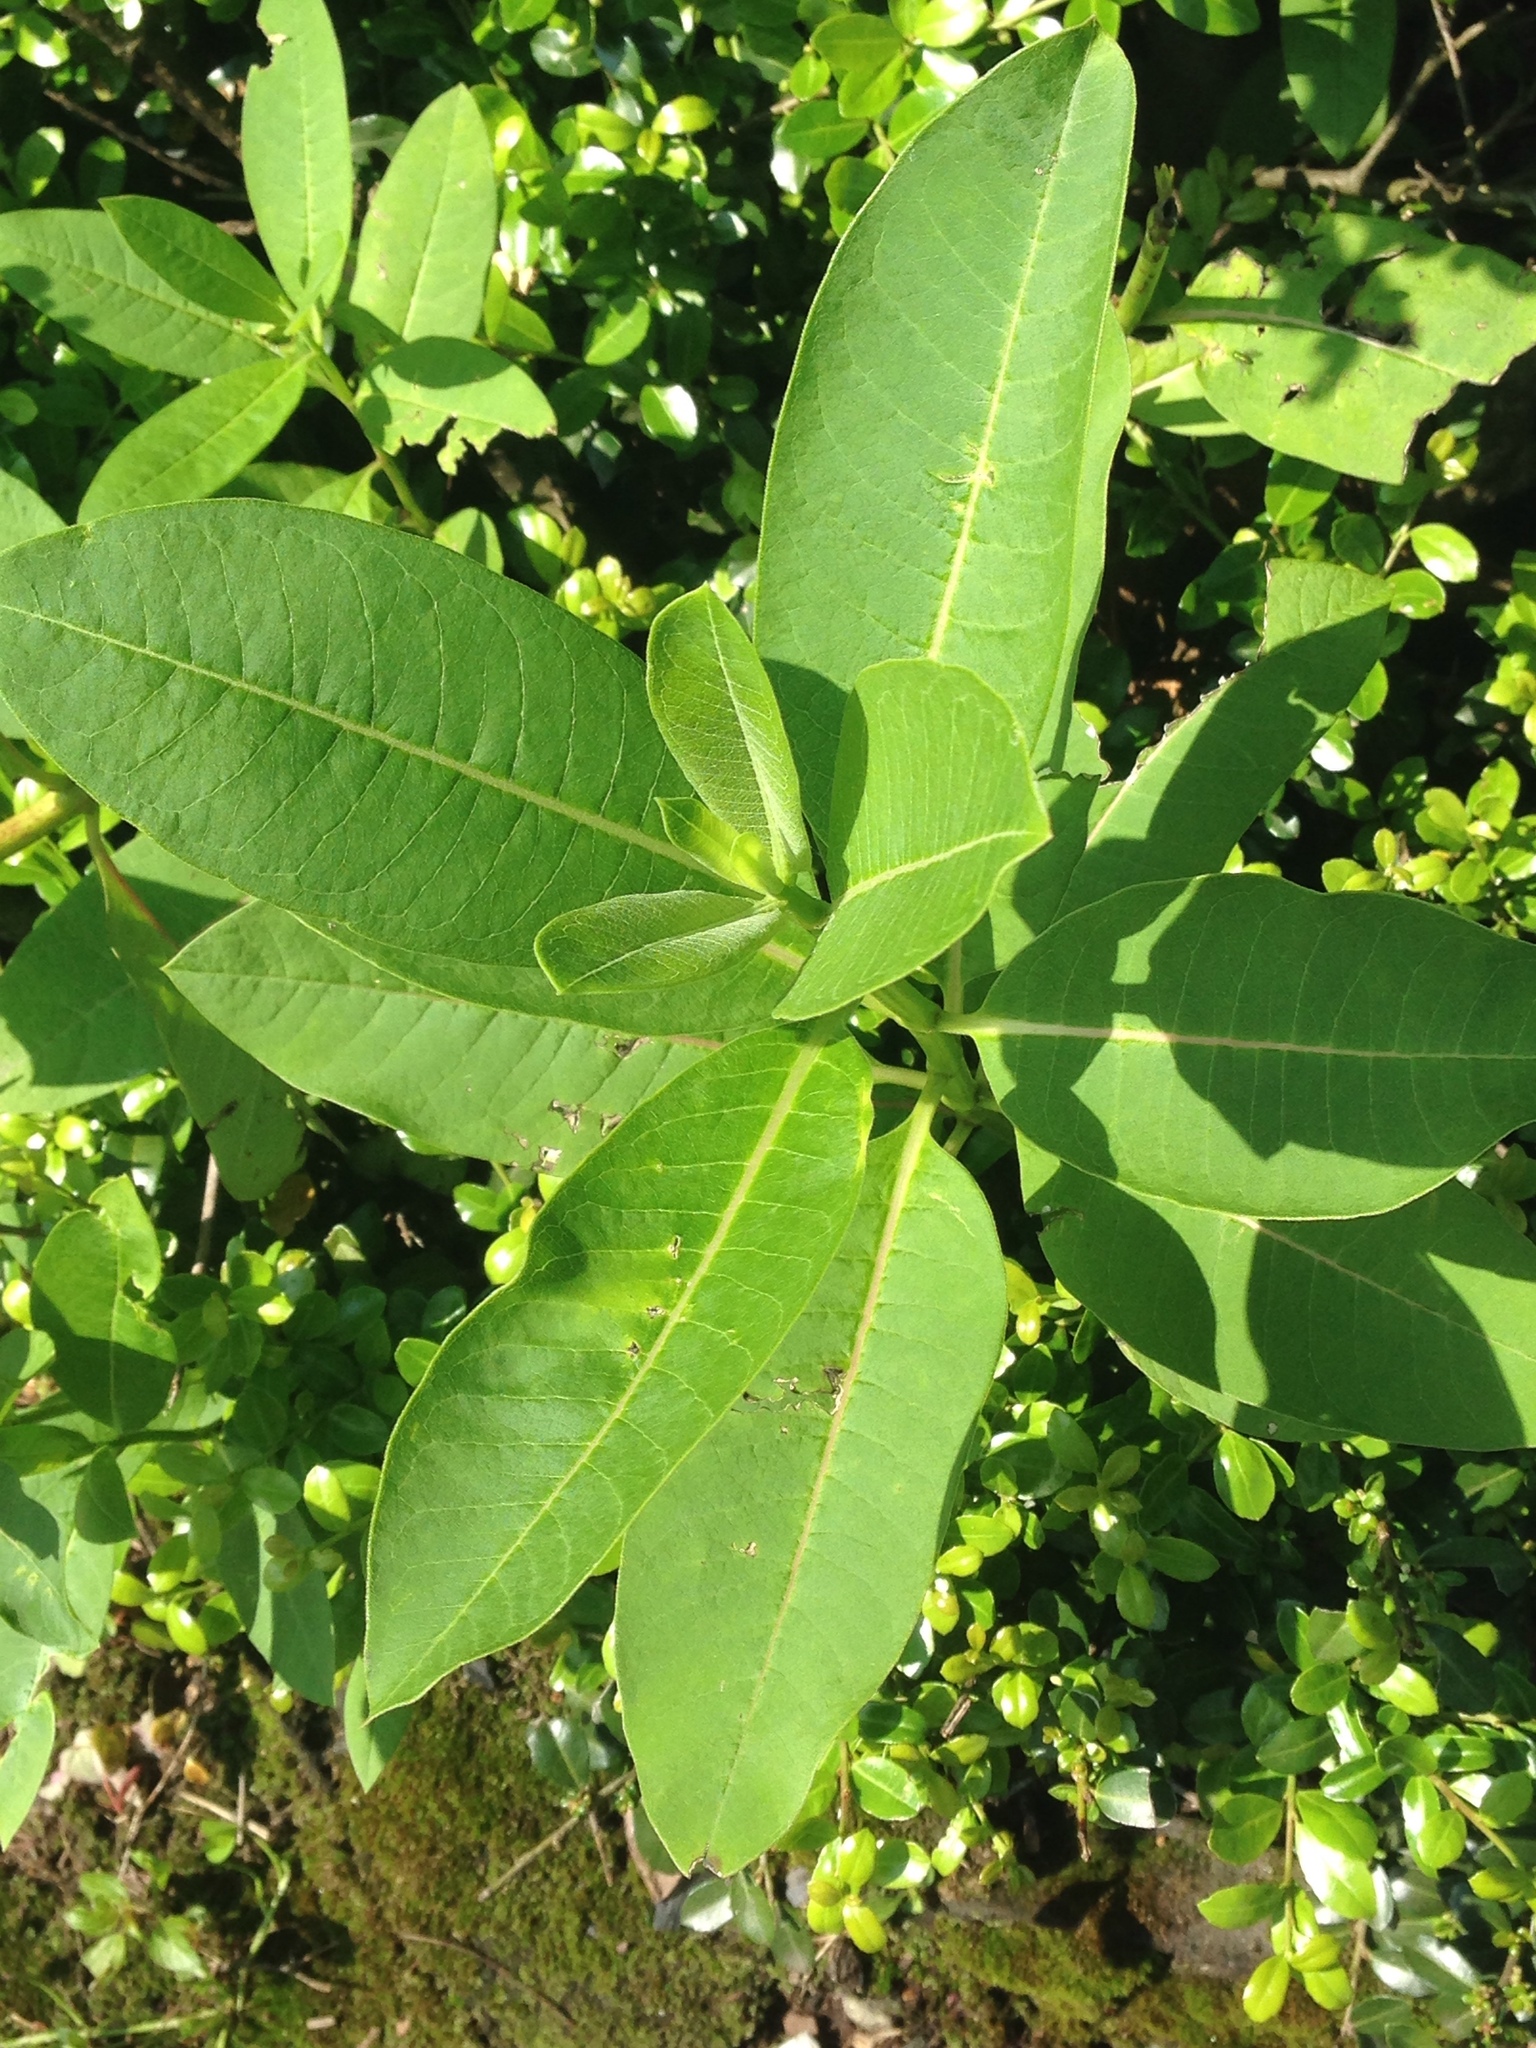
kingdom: Plantae
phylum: Tracheophyta
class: Magnoliopsida
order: Gentianales
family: Apocynaceae
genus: Asclepias
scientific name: Asclepias syriaca
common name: Common milkweed
